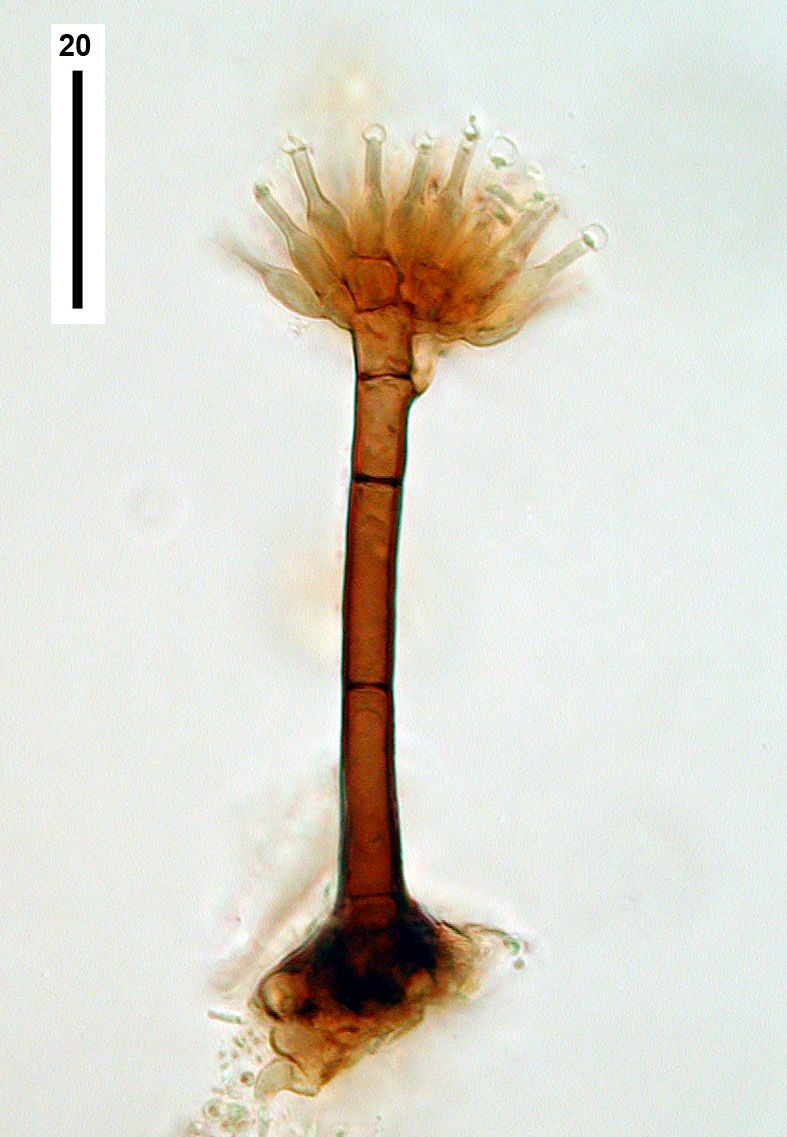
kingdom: Fungi
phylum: Ascomycota
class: Sordariomycetes
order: Microascales
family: Ceratocystidaceae
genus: Sporendocladia
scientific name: Sporendocladia truncata
